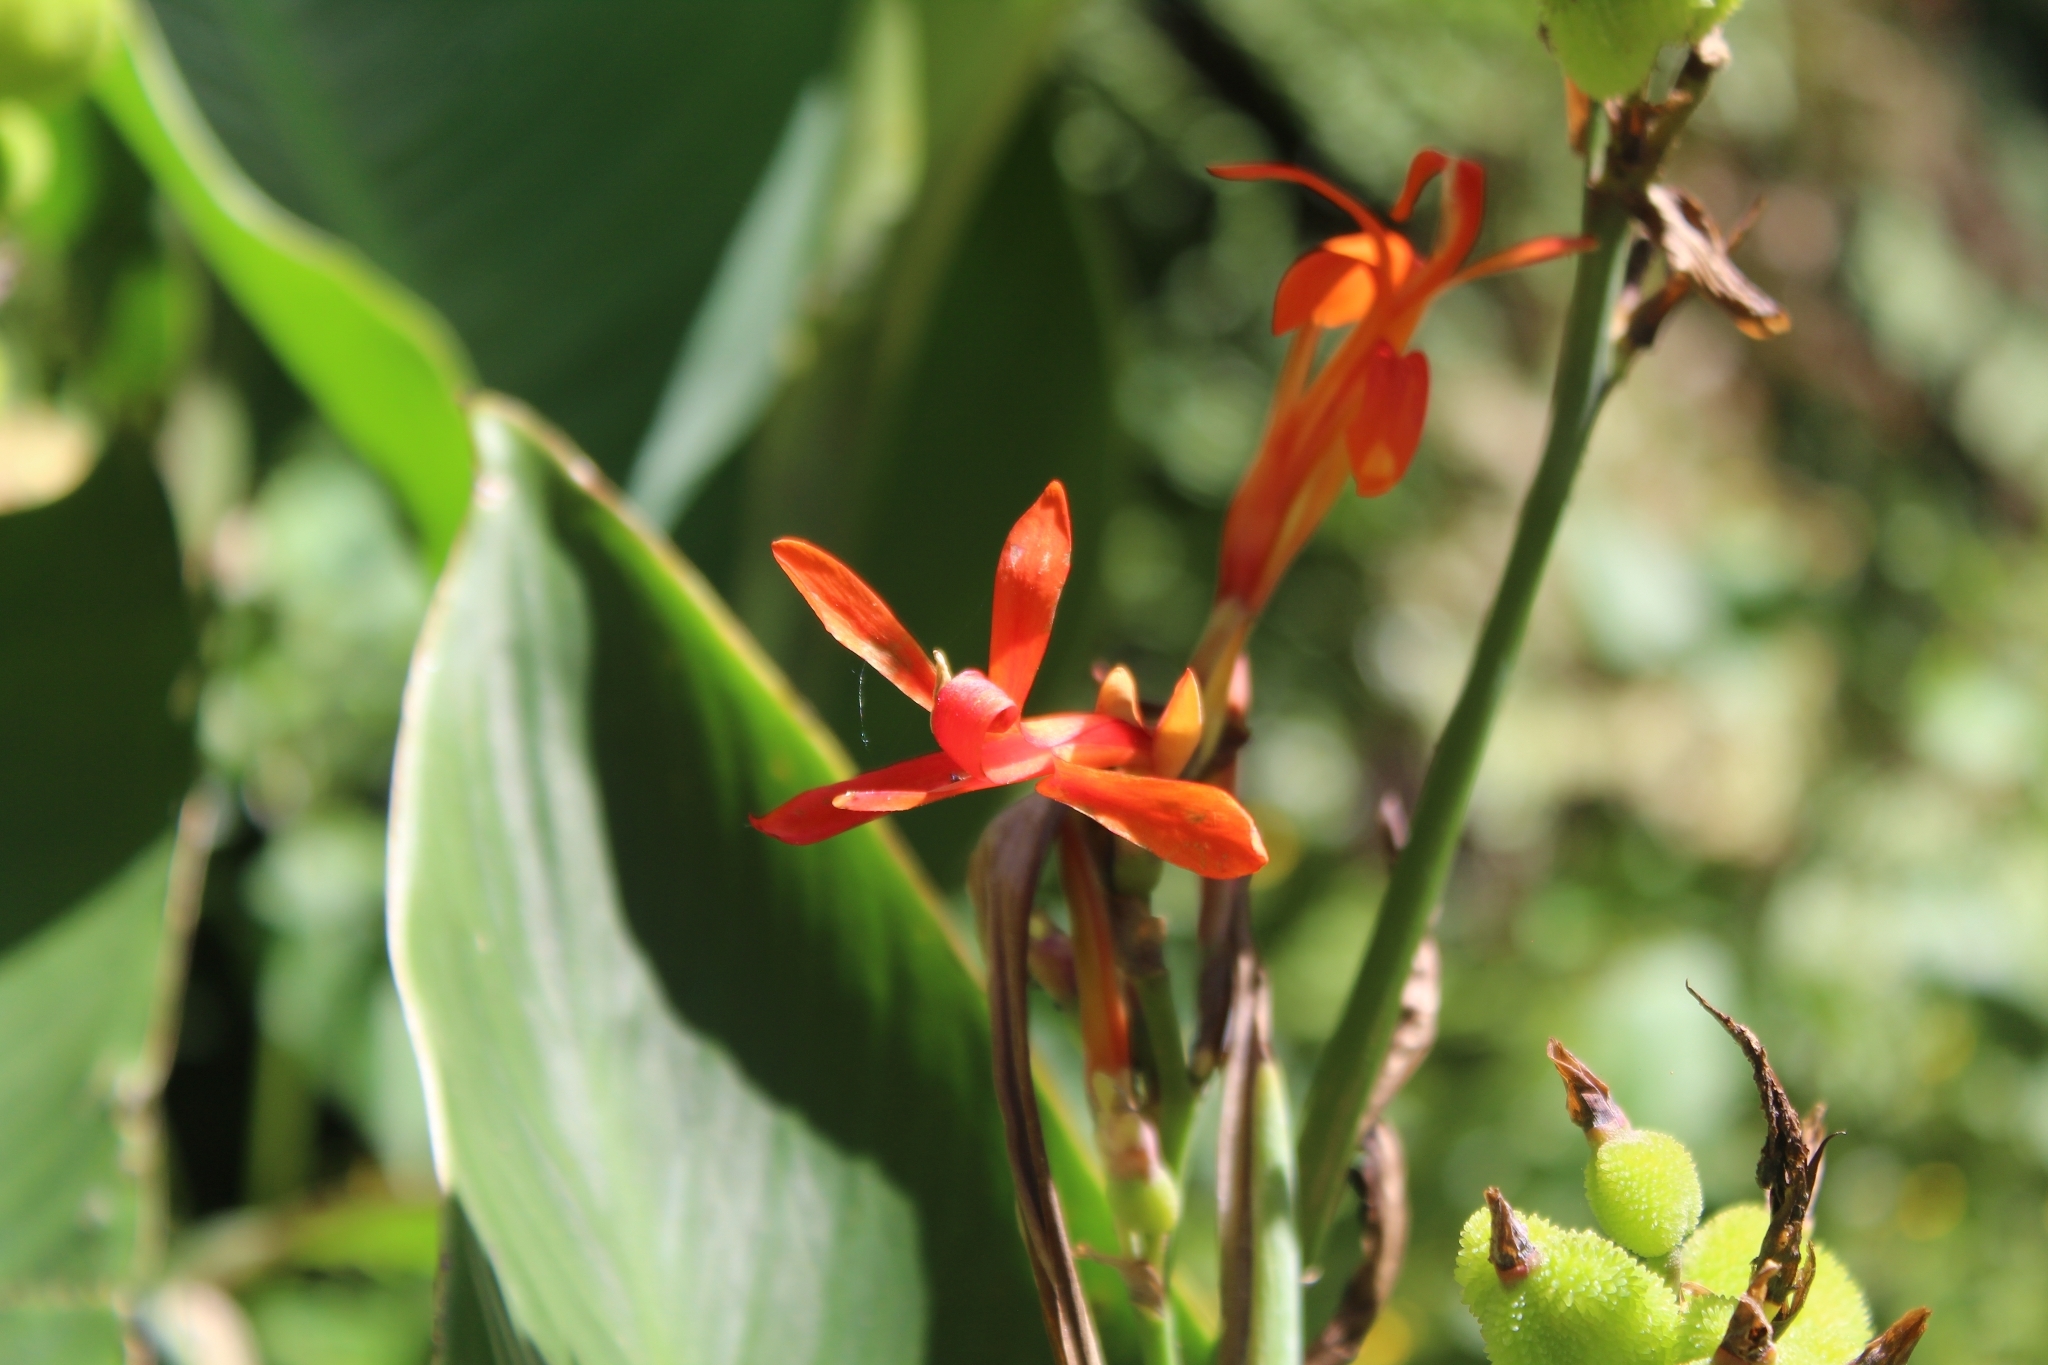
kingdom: Plantae
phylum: Tracheophyta
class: Liliopsida
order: Zingiberales
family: Cannaceae
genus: Canna
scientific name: Canna indica
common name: Indian shot
